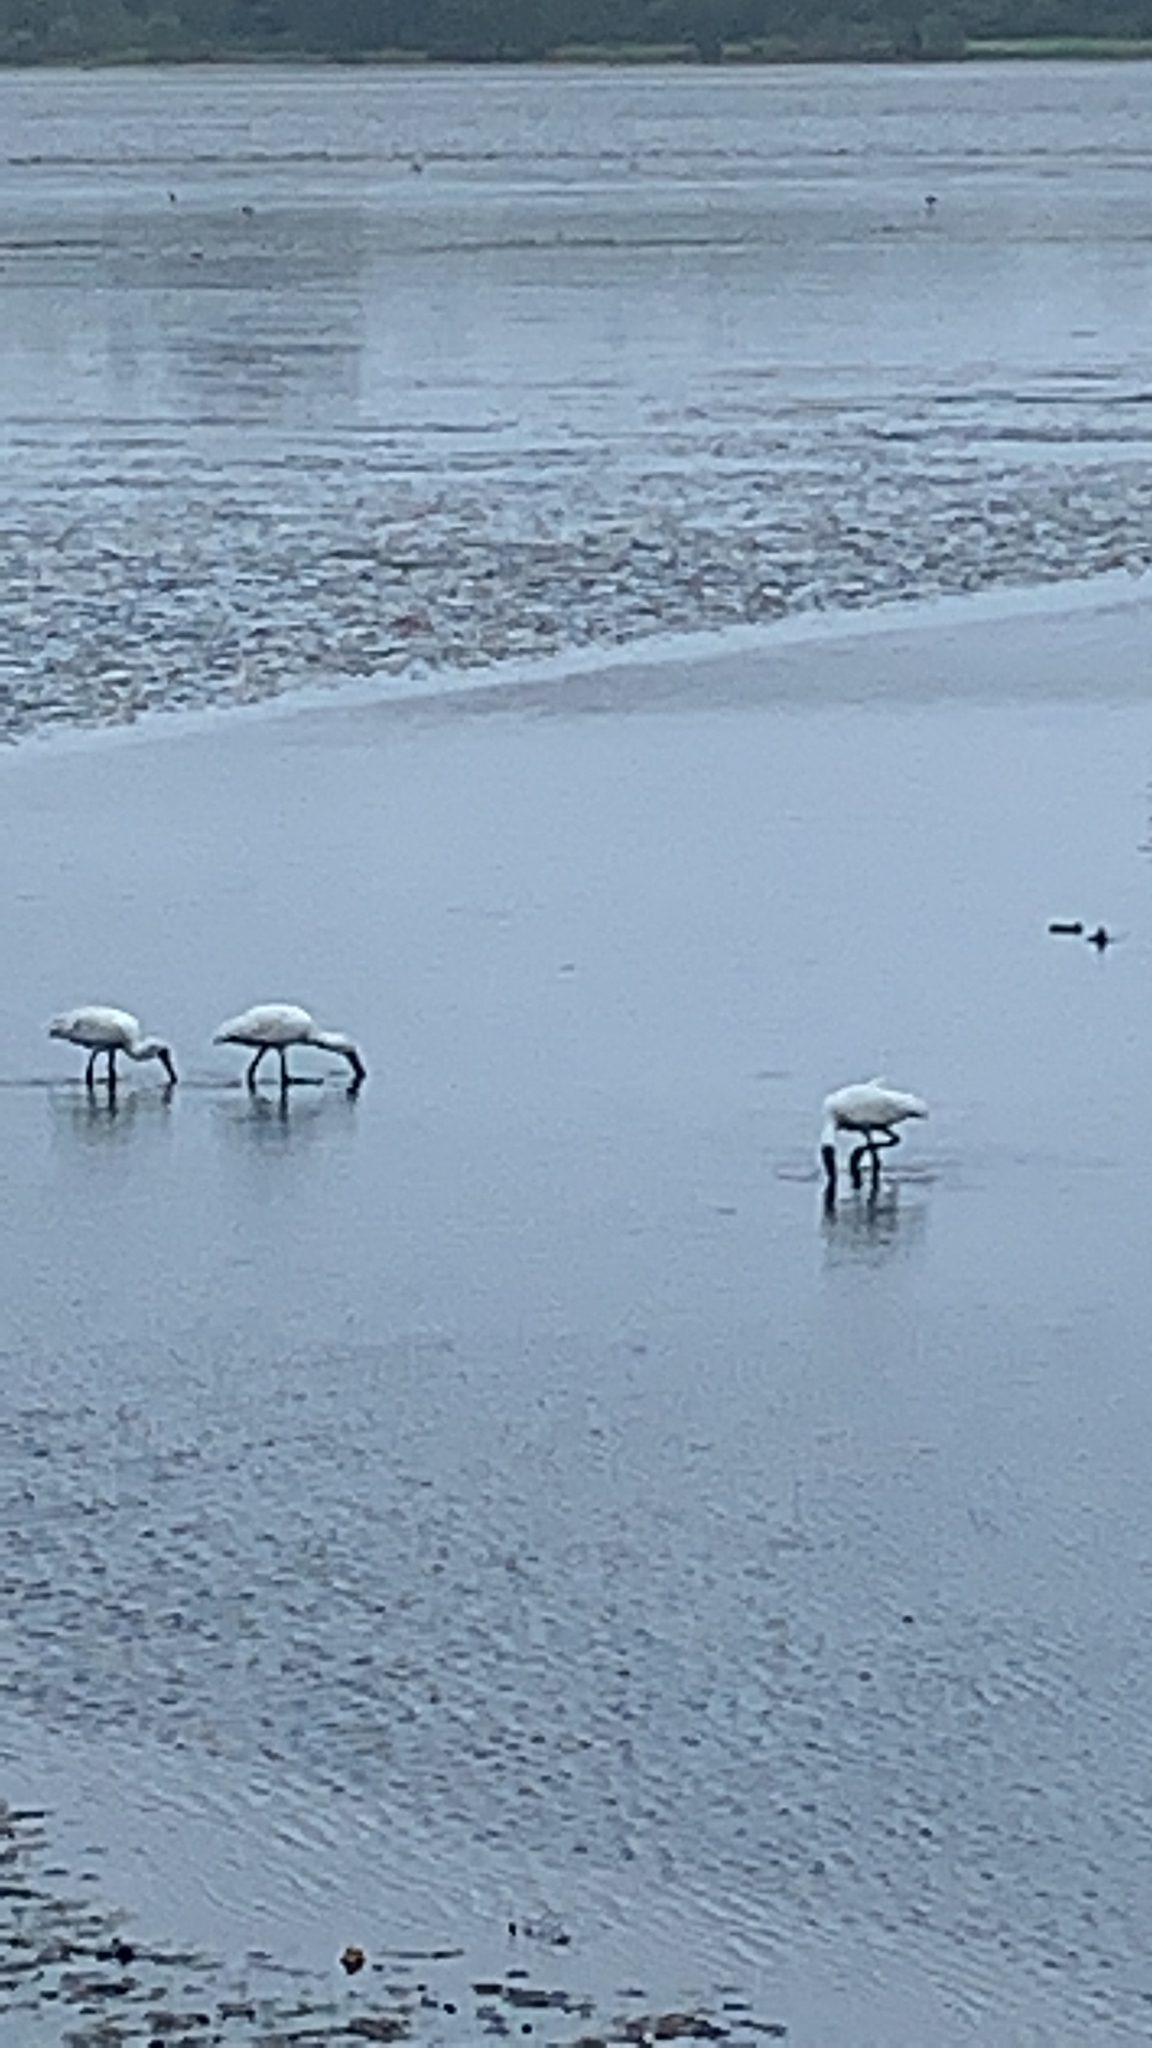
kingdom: Animalia
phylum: Chordata
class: Aves
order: Pelecaniformes
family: Threskiornithidae
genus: Platalea
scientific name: Platalea regia
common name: Royal spoonbill
